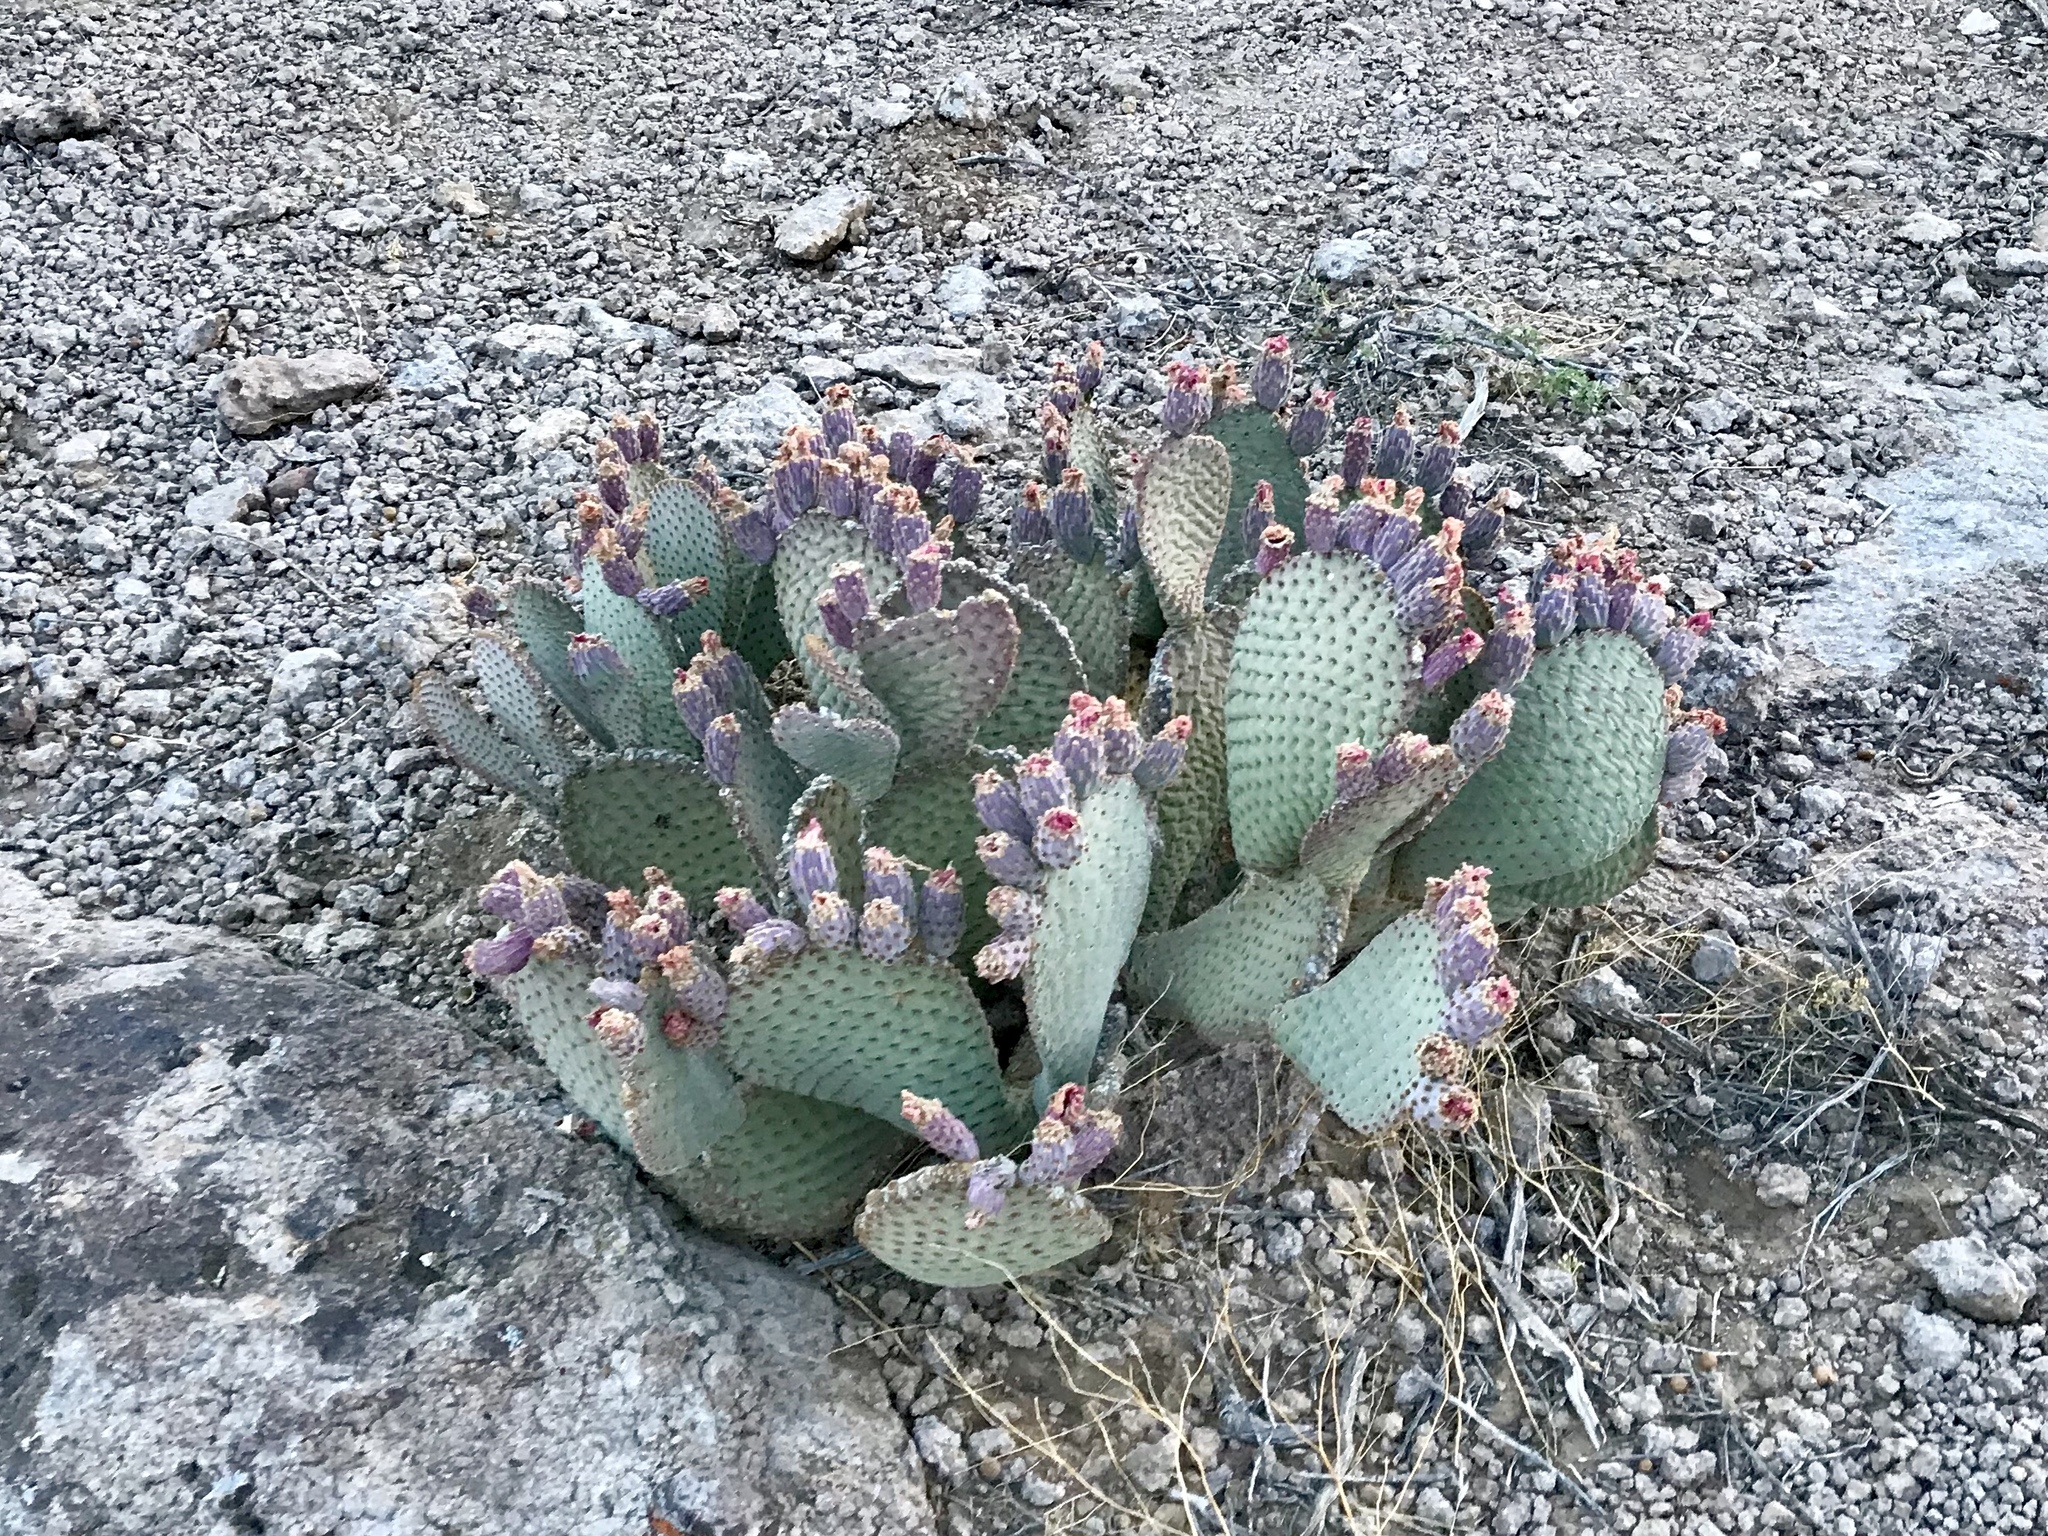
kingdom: Plantae
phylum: Tracheophyta
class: Magnoliopsida
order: Caryophyllales
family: Cactaceae
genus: Opuntia
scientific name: Opuntia basilaris
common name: Beavertail prickly-pear
